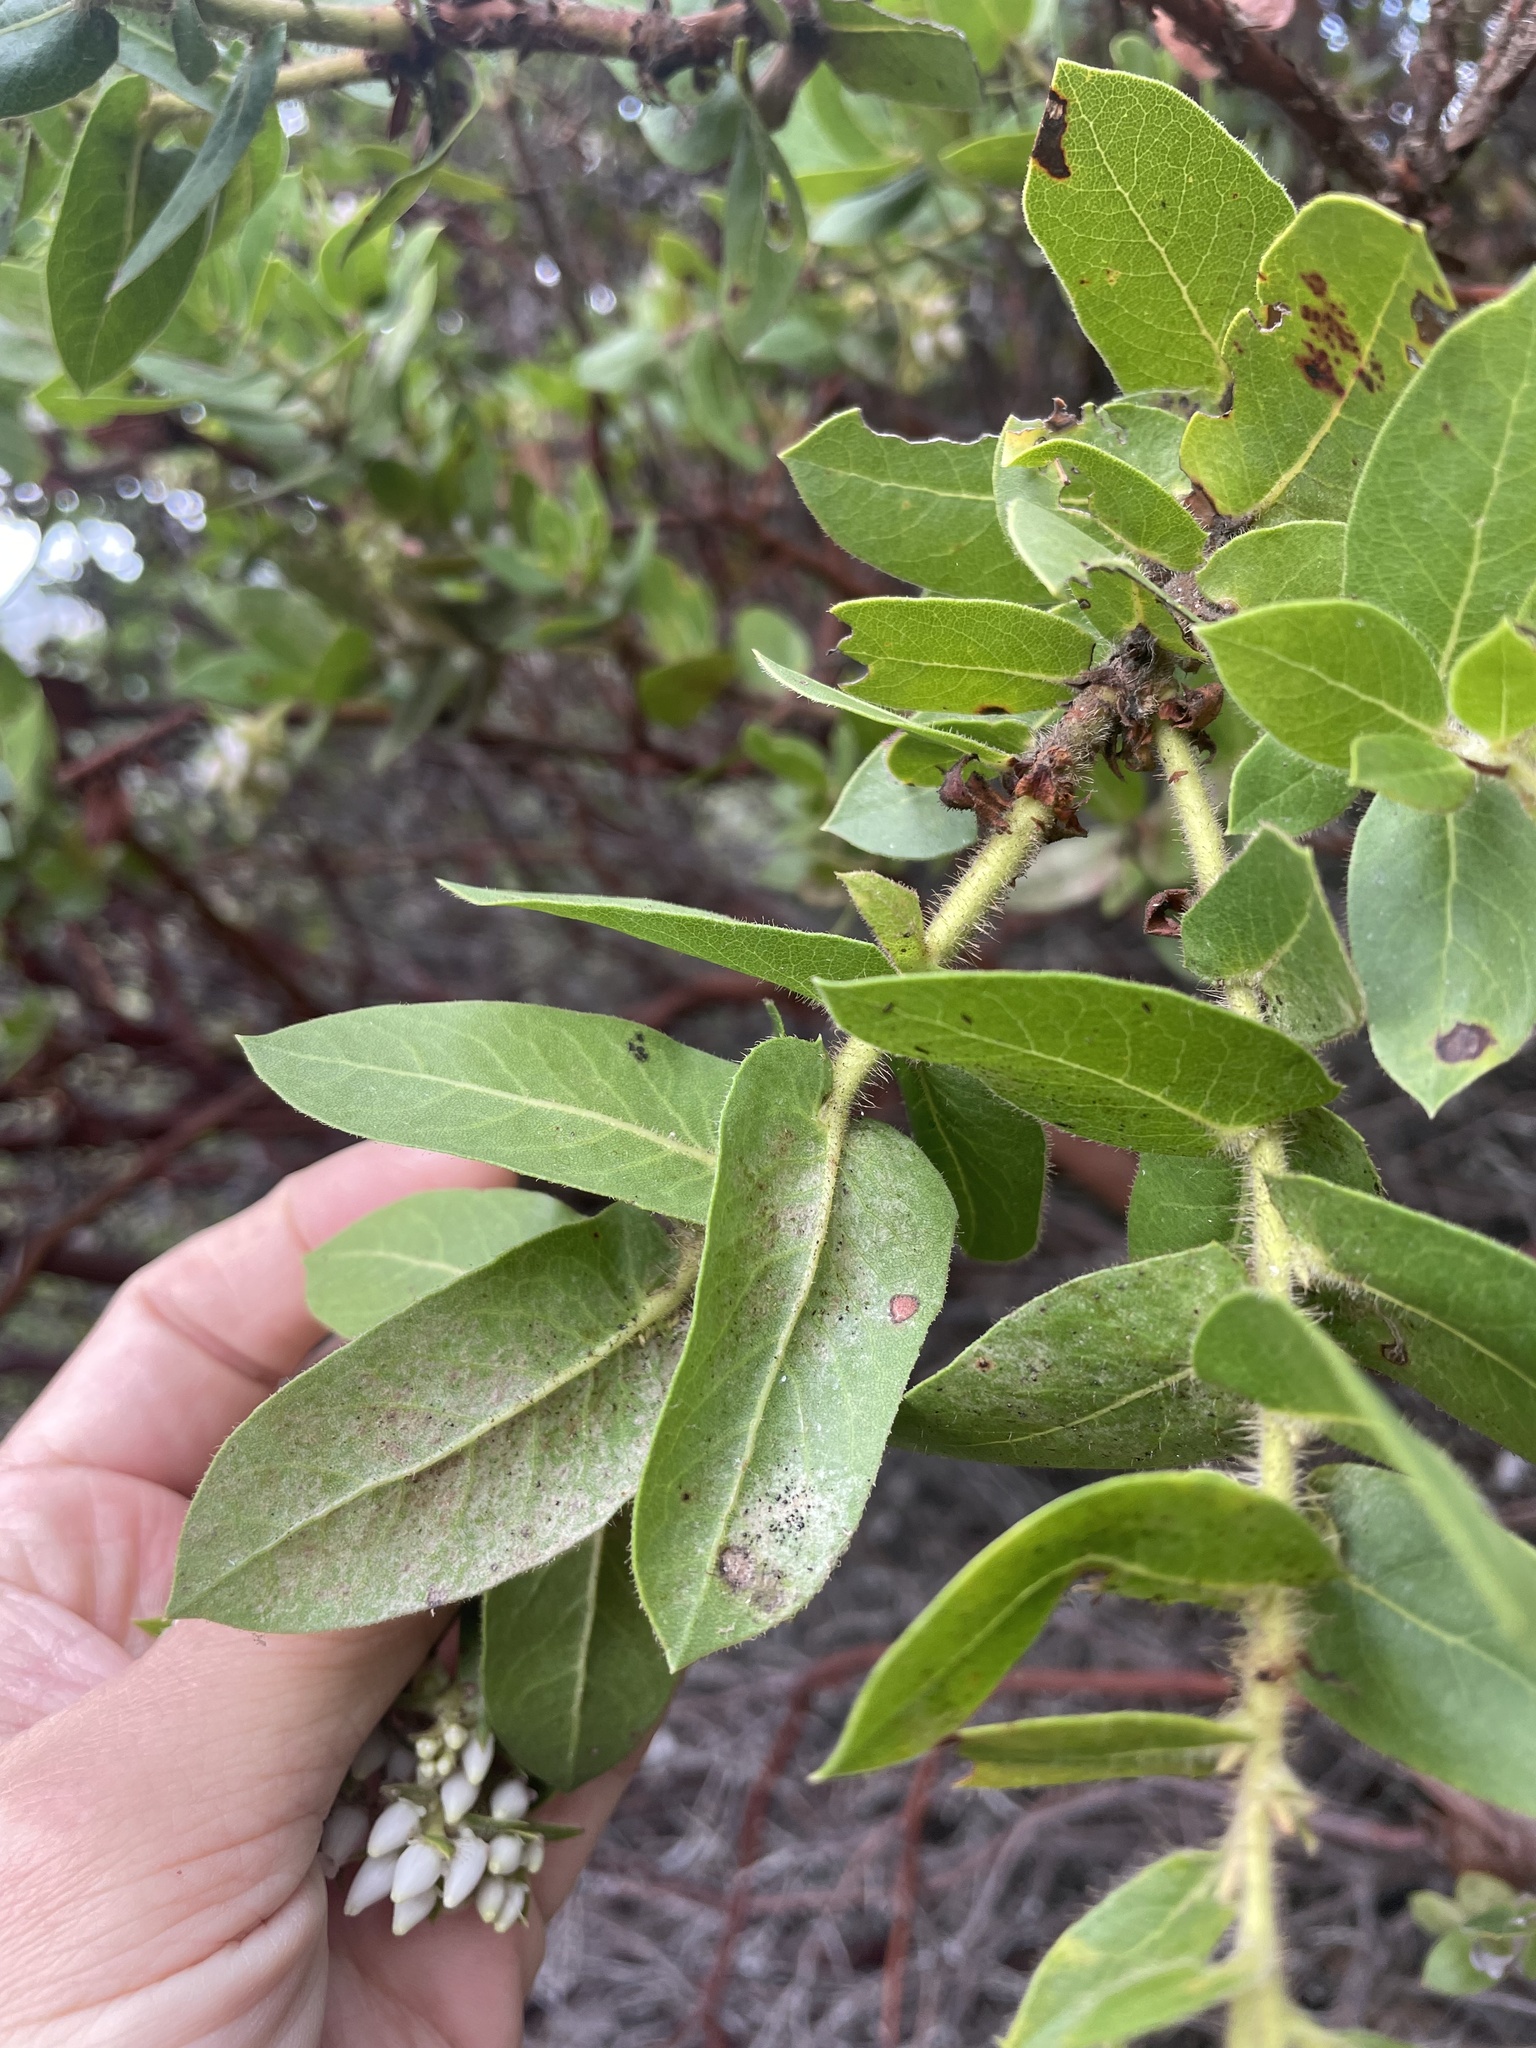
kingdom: Plantae
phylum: Tracheophyta
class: Magnoliopsida
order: Ericales
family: Ericaceae
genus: Arctostaphylos
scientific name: Arctostaphylos montaraensis
